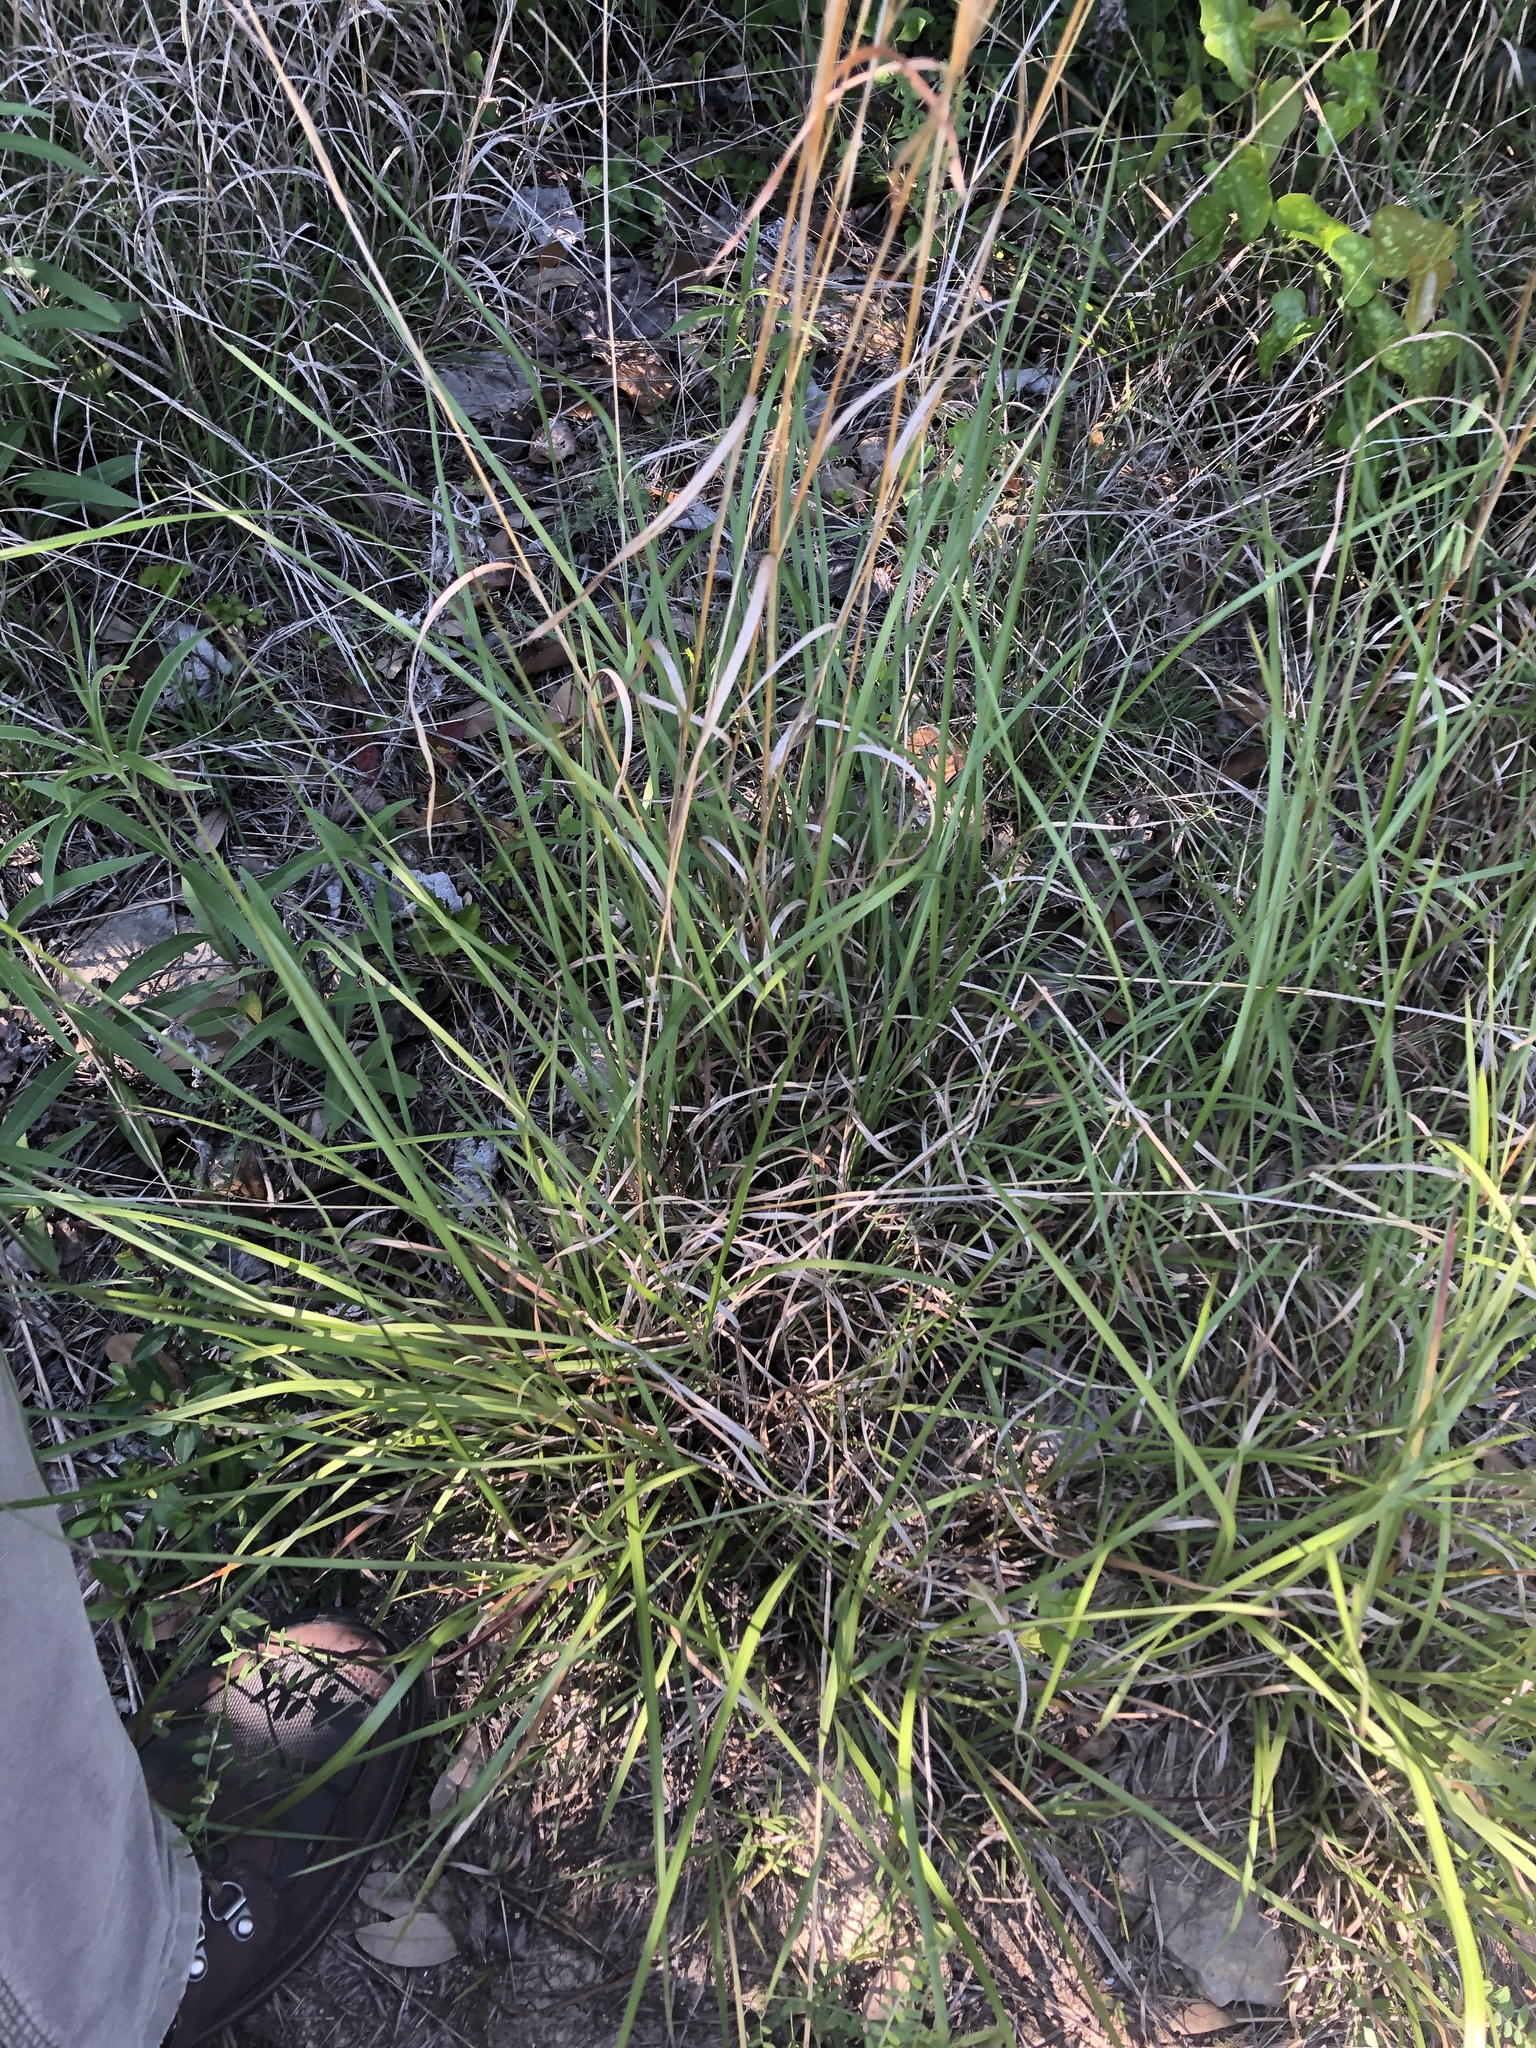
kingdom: Plantae
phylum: Tracheophyta
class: Liliopsida
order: Poales
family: Poaceae
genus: Schizachyrium
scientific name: Schizachyrium scoparium
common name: Little bluestem
